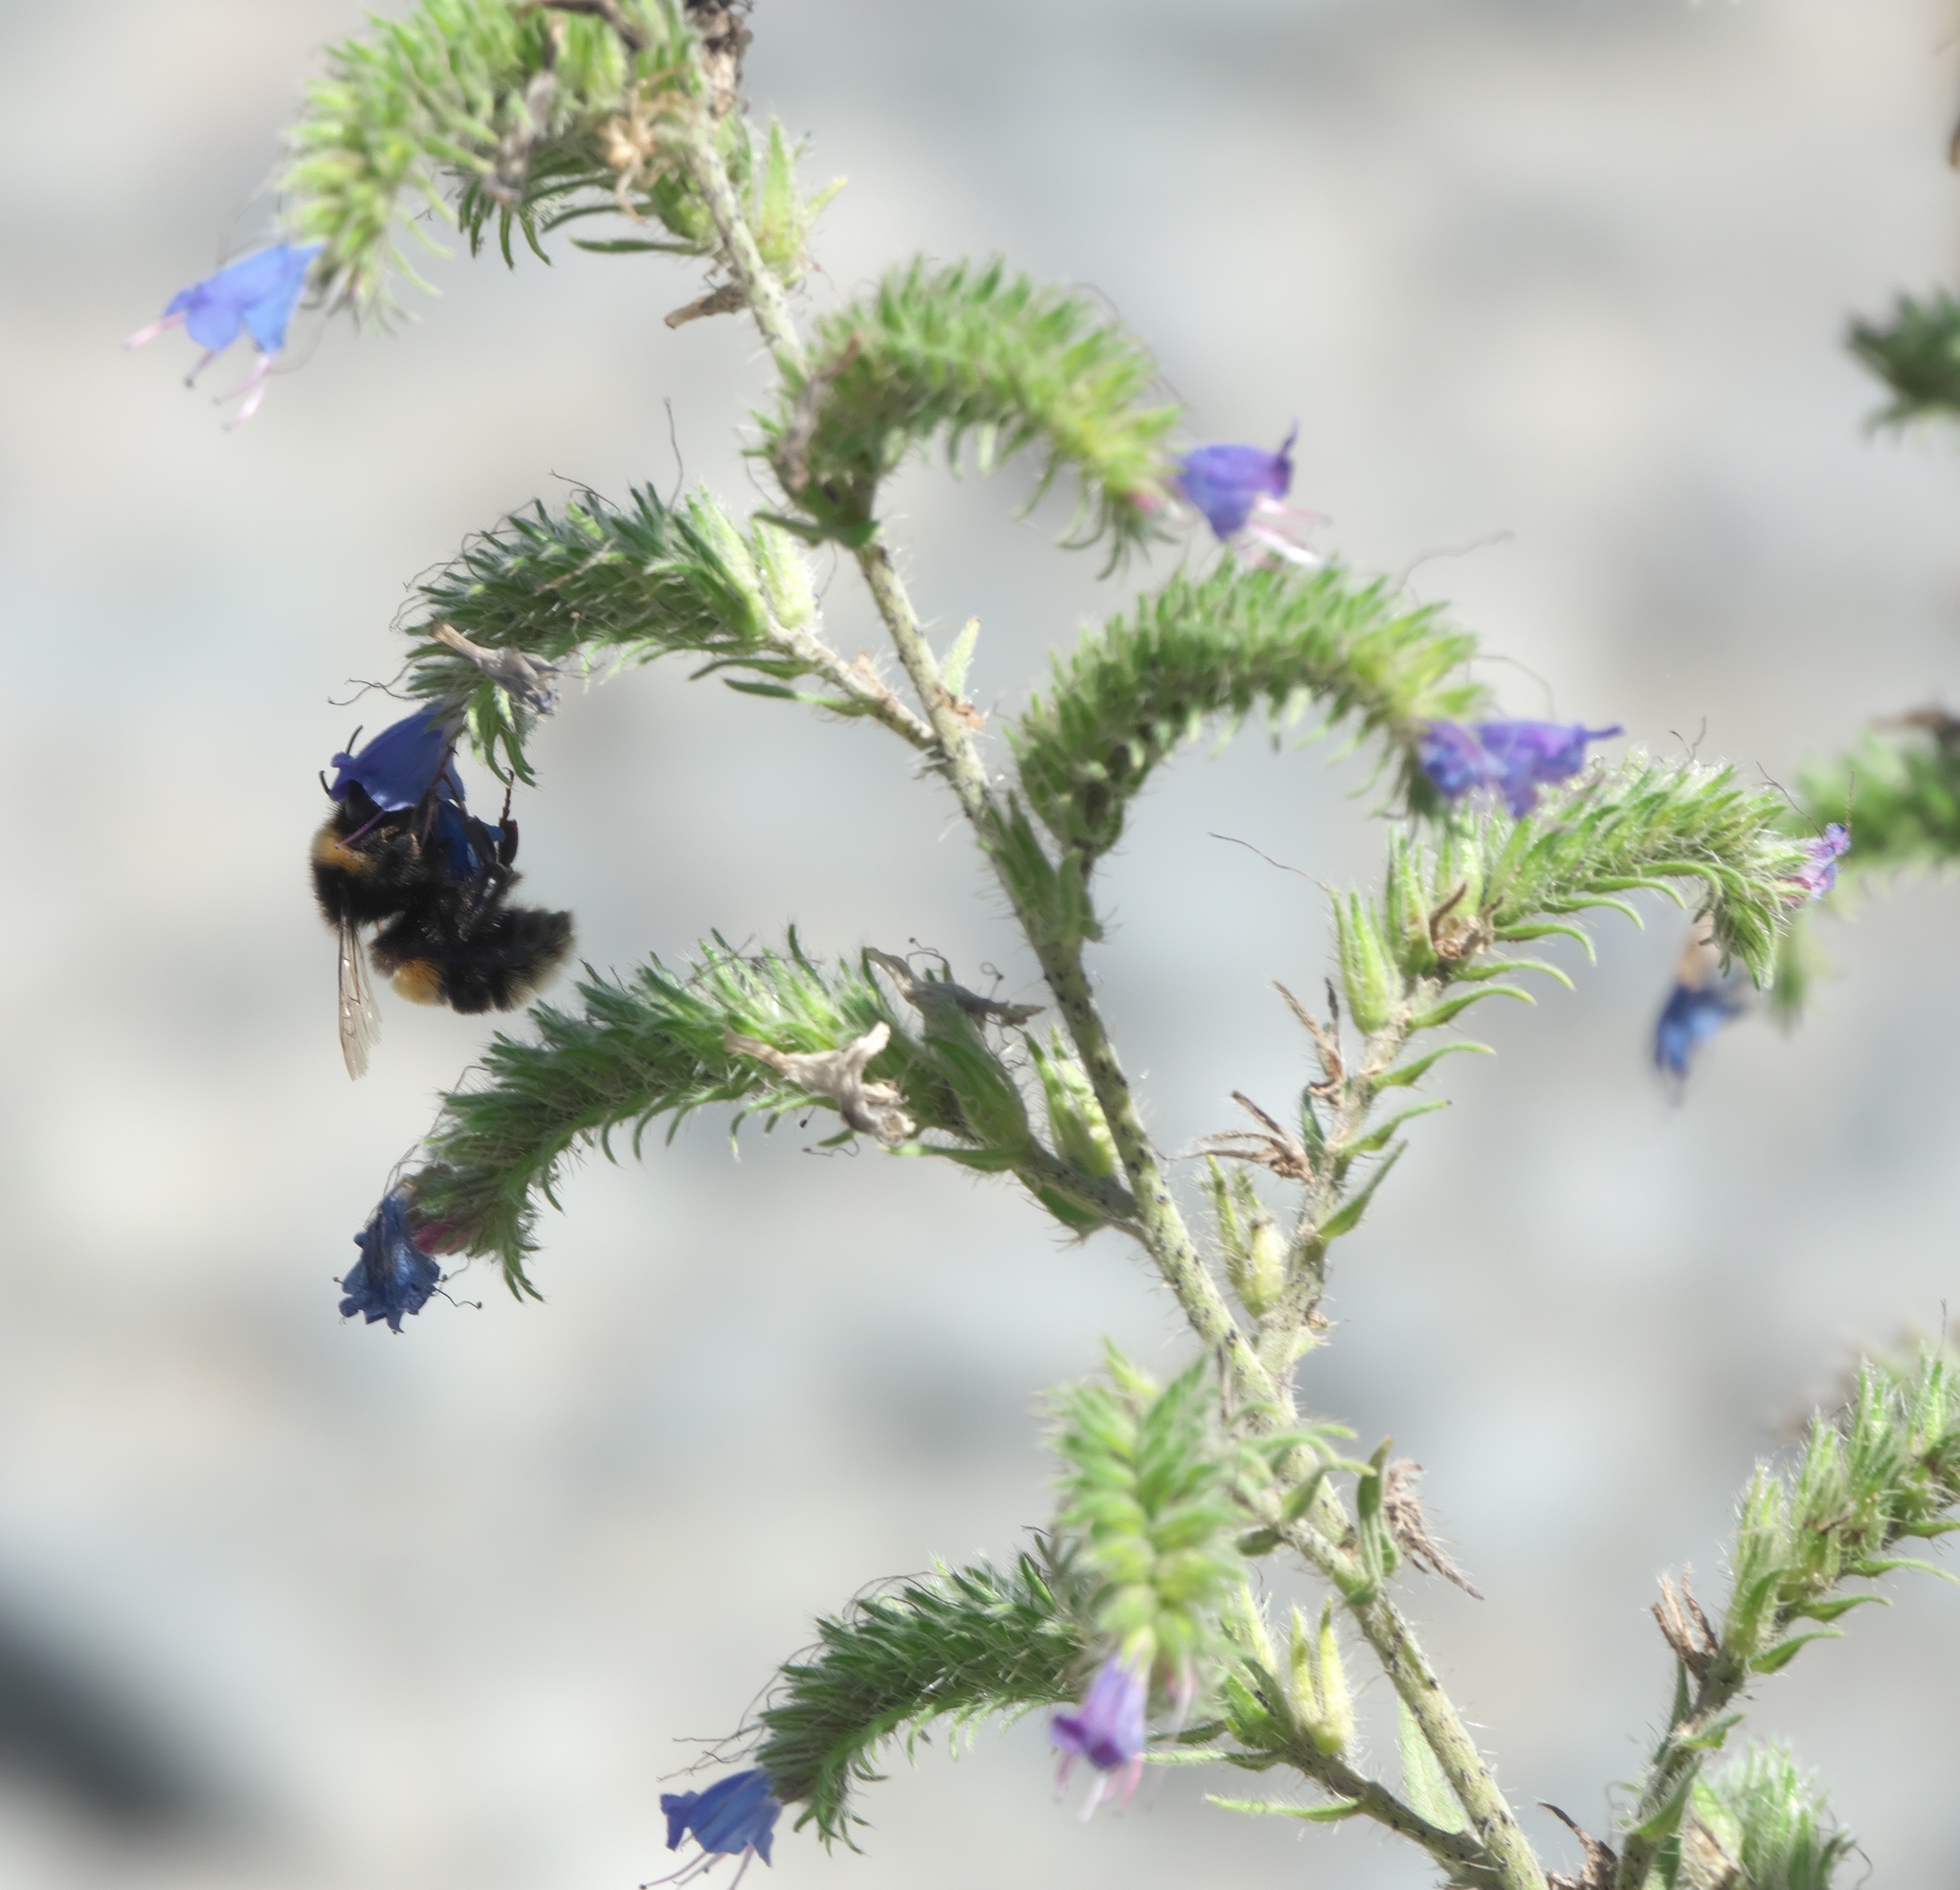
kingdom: Plantae
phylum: Tracheophyta
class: Magnoliopsida
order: Boraginales
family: Boraginaceae
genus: Echium
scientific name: Echium vulgare
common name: Common viper's bugloss
